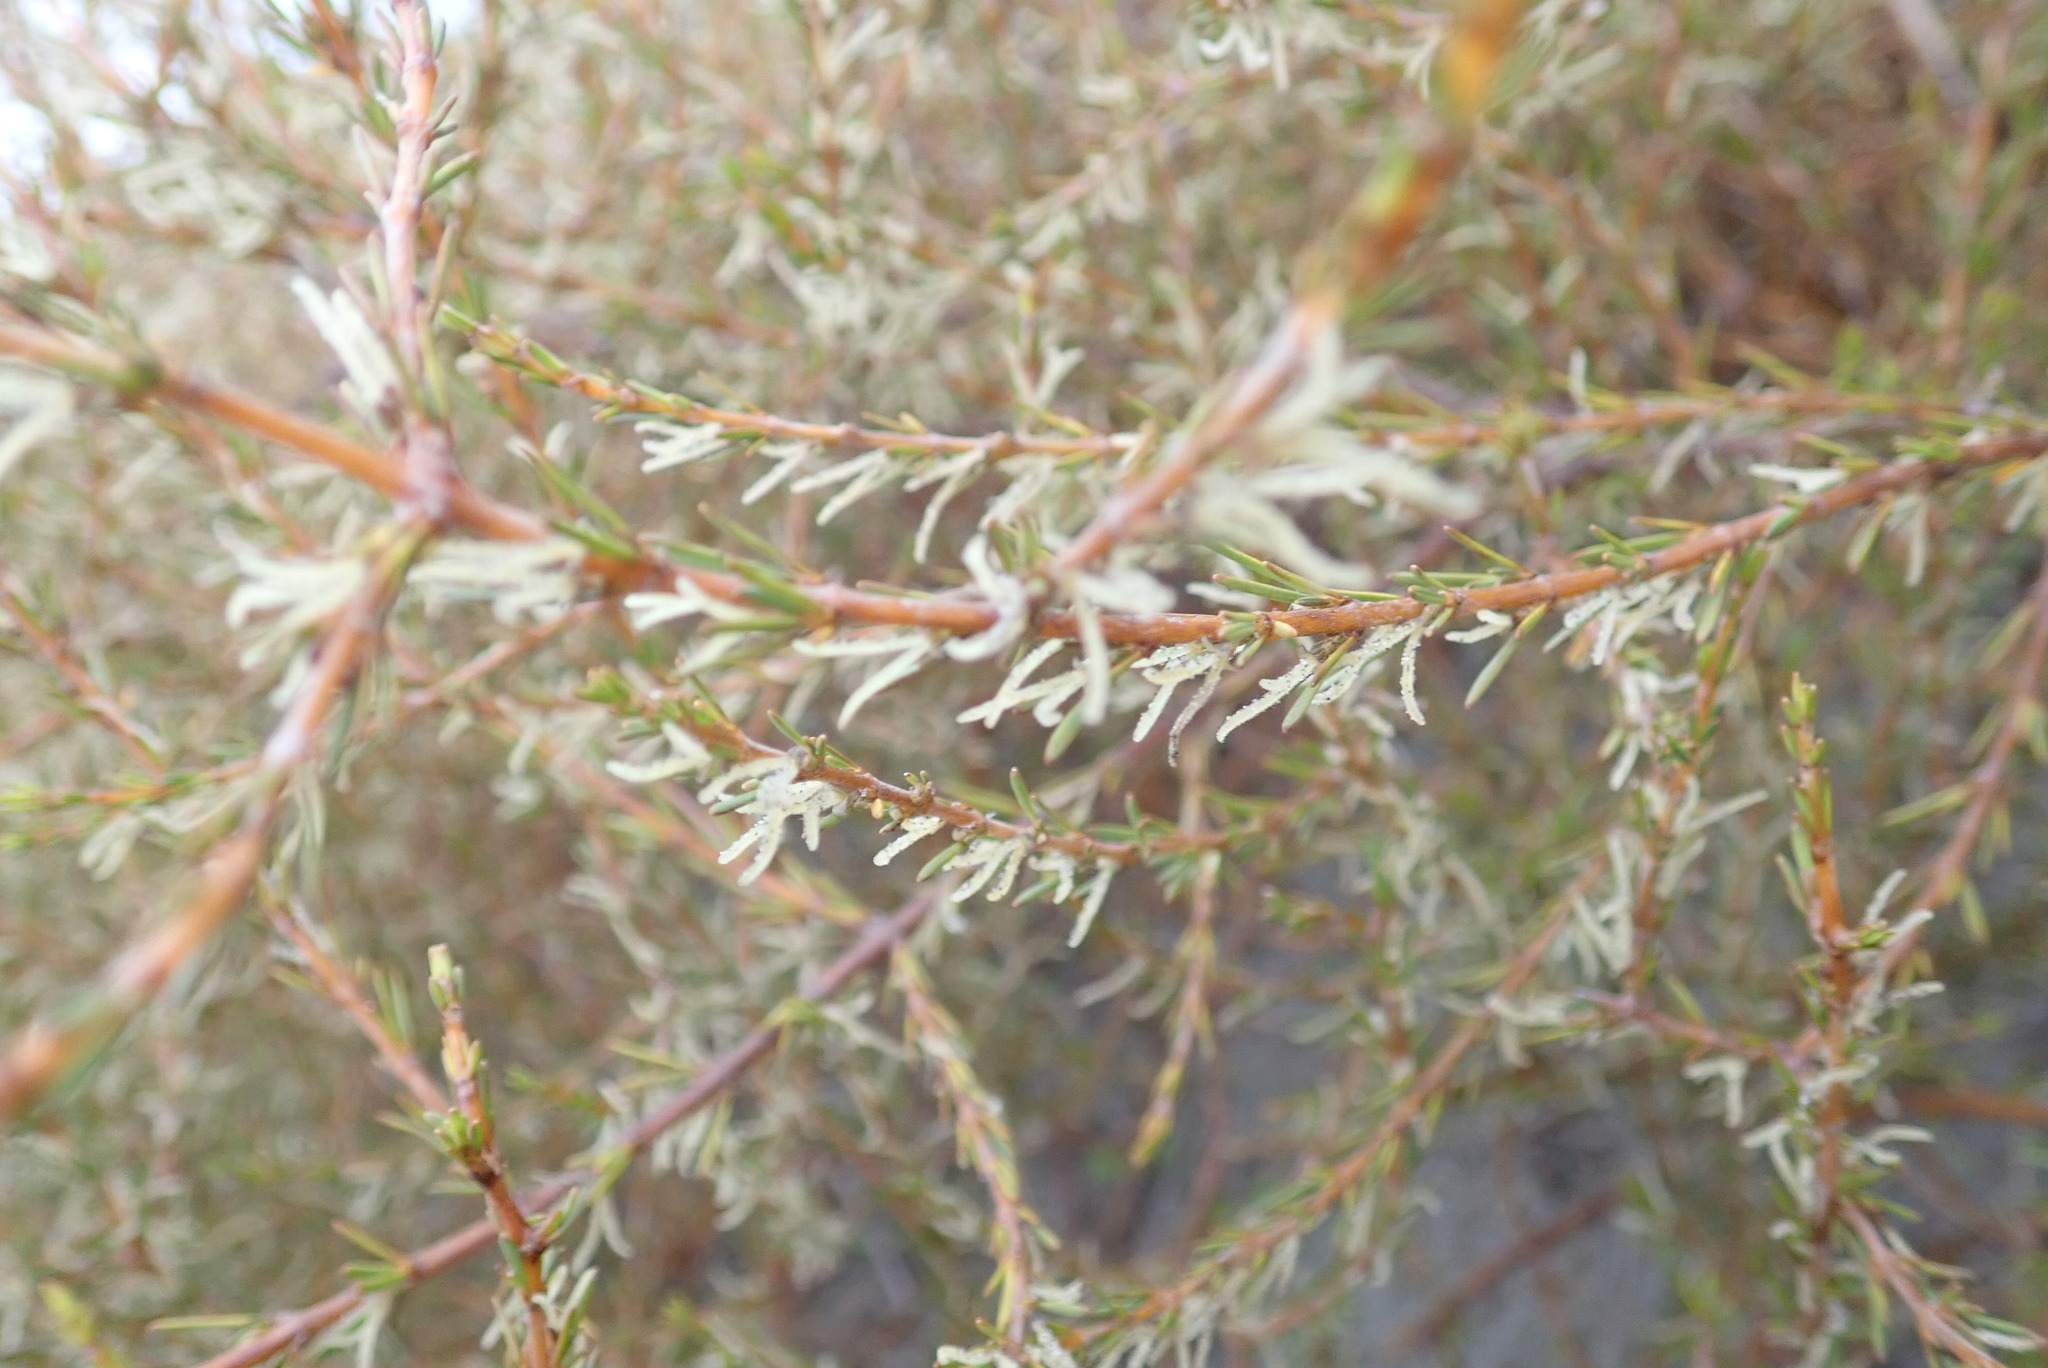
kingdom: Plantae
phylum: Tracheophyta
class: Magnoliopsida
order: Gentianales
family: Rubiaceae
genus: Coprosma
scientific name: Coprosma acerosa
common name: Sand coprosma
